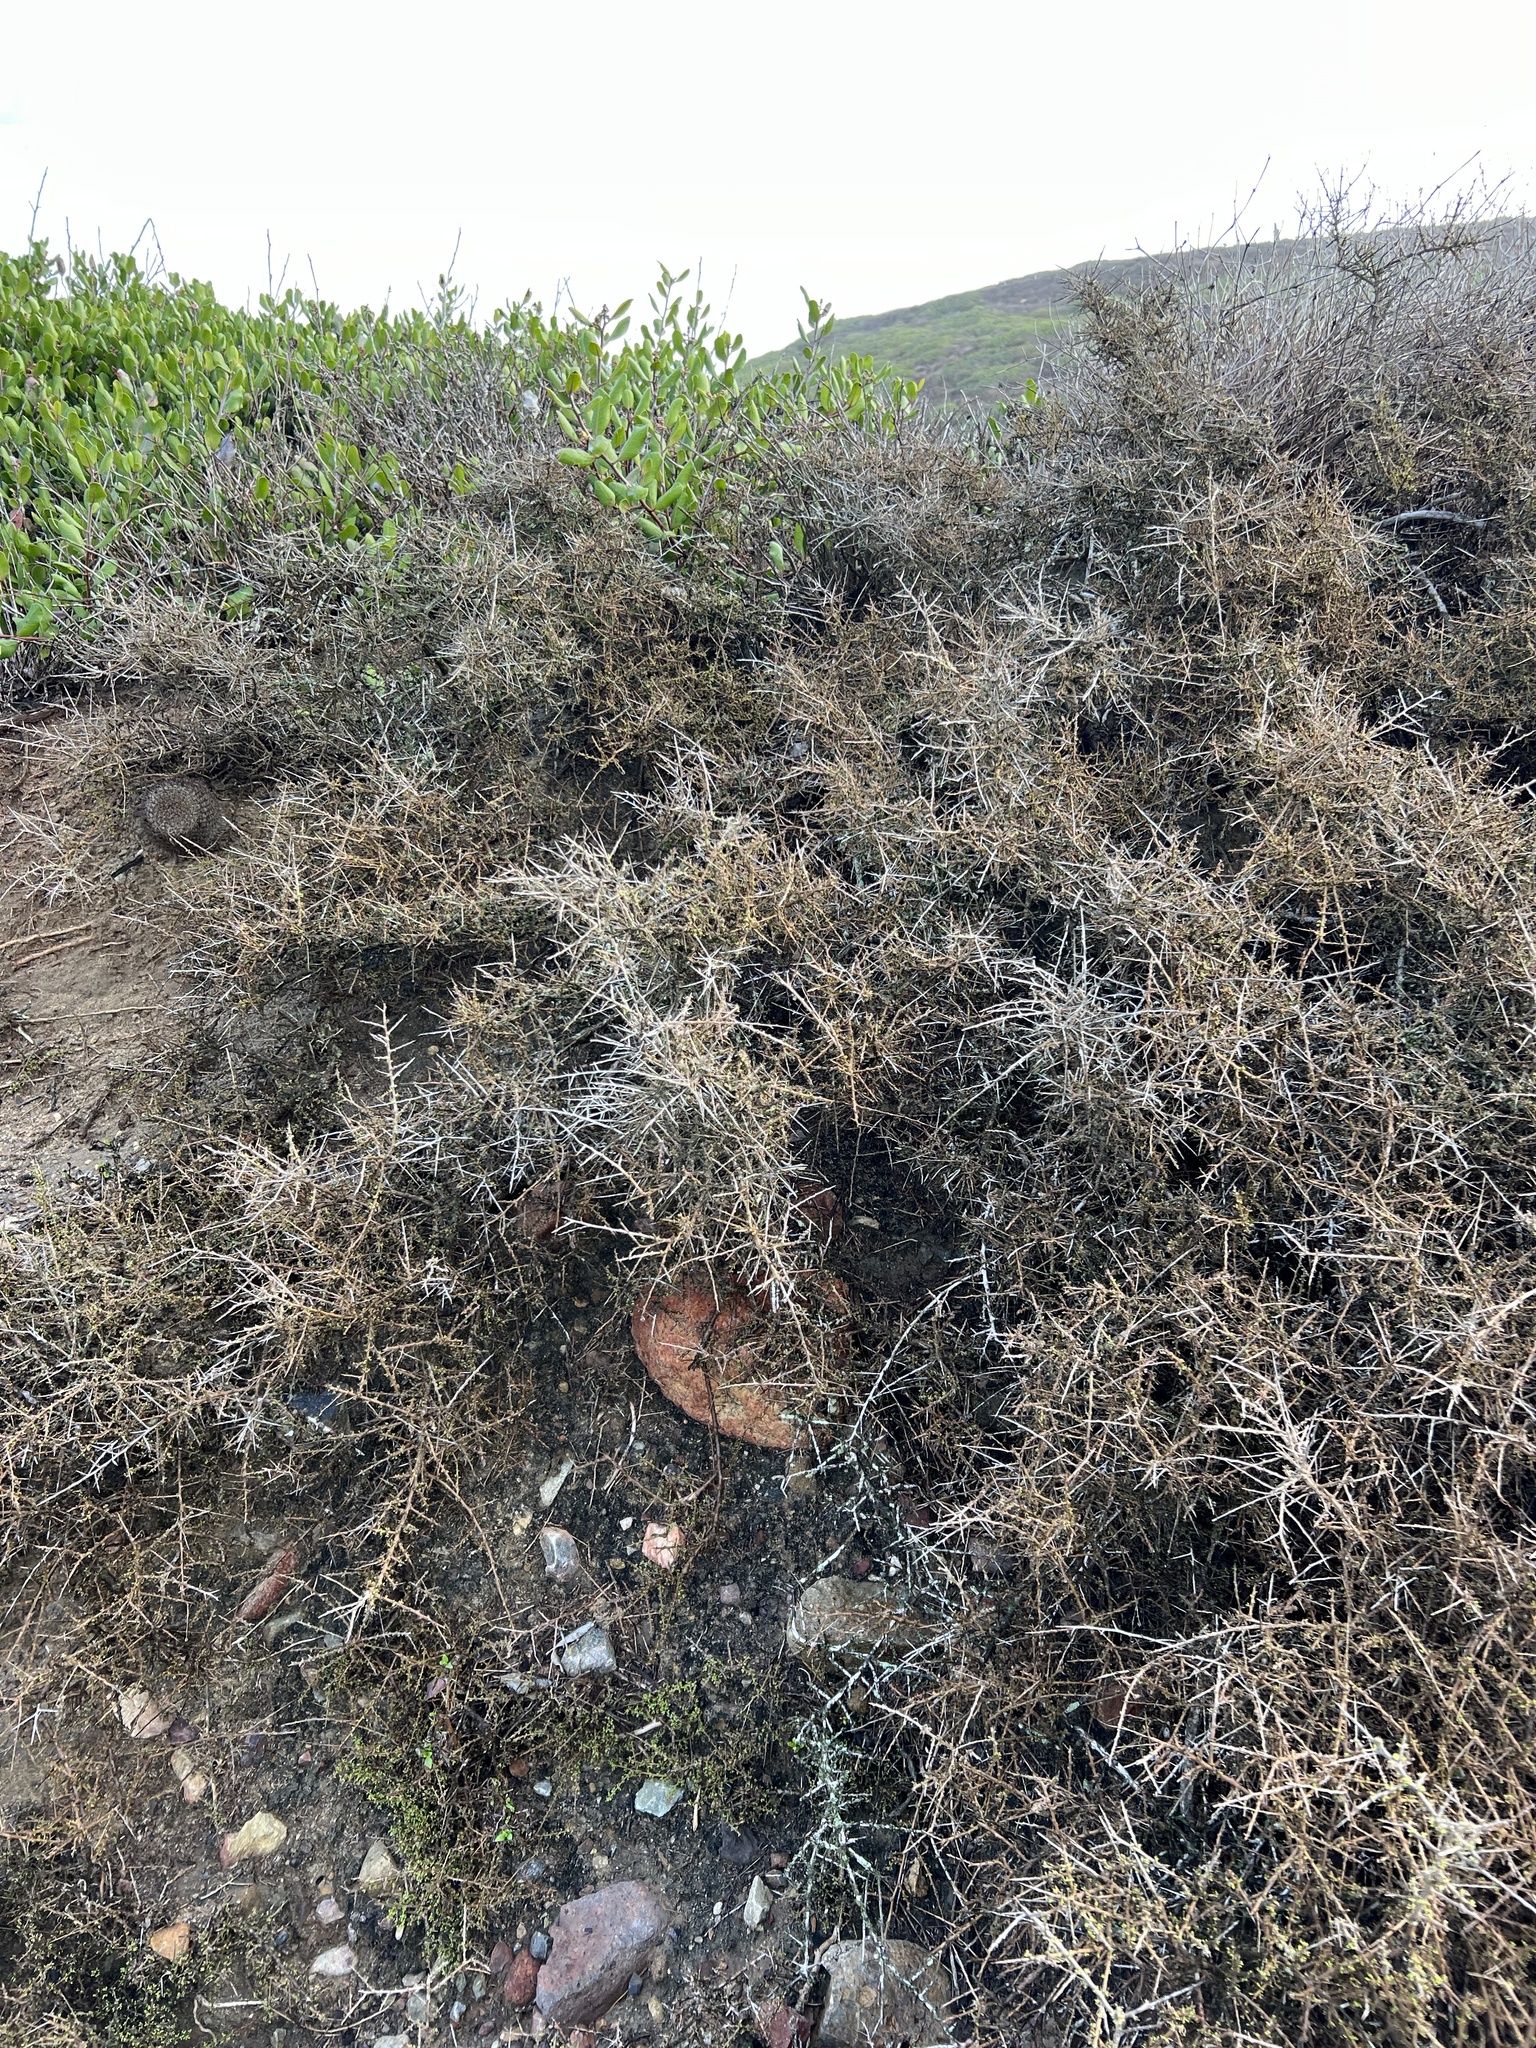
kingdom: Plantae
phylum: Tracheophyta
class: Magnoliopsida
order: Solanales
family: Solanaceae
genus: Lycium
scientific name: Lycium californicum
